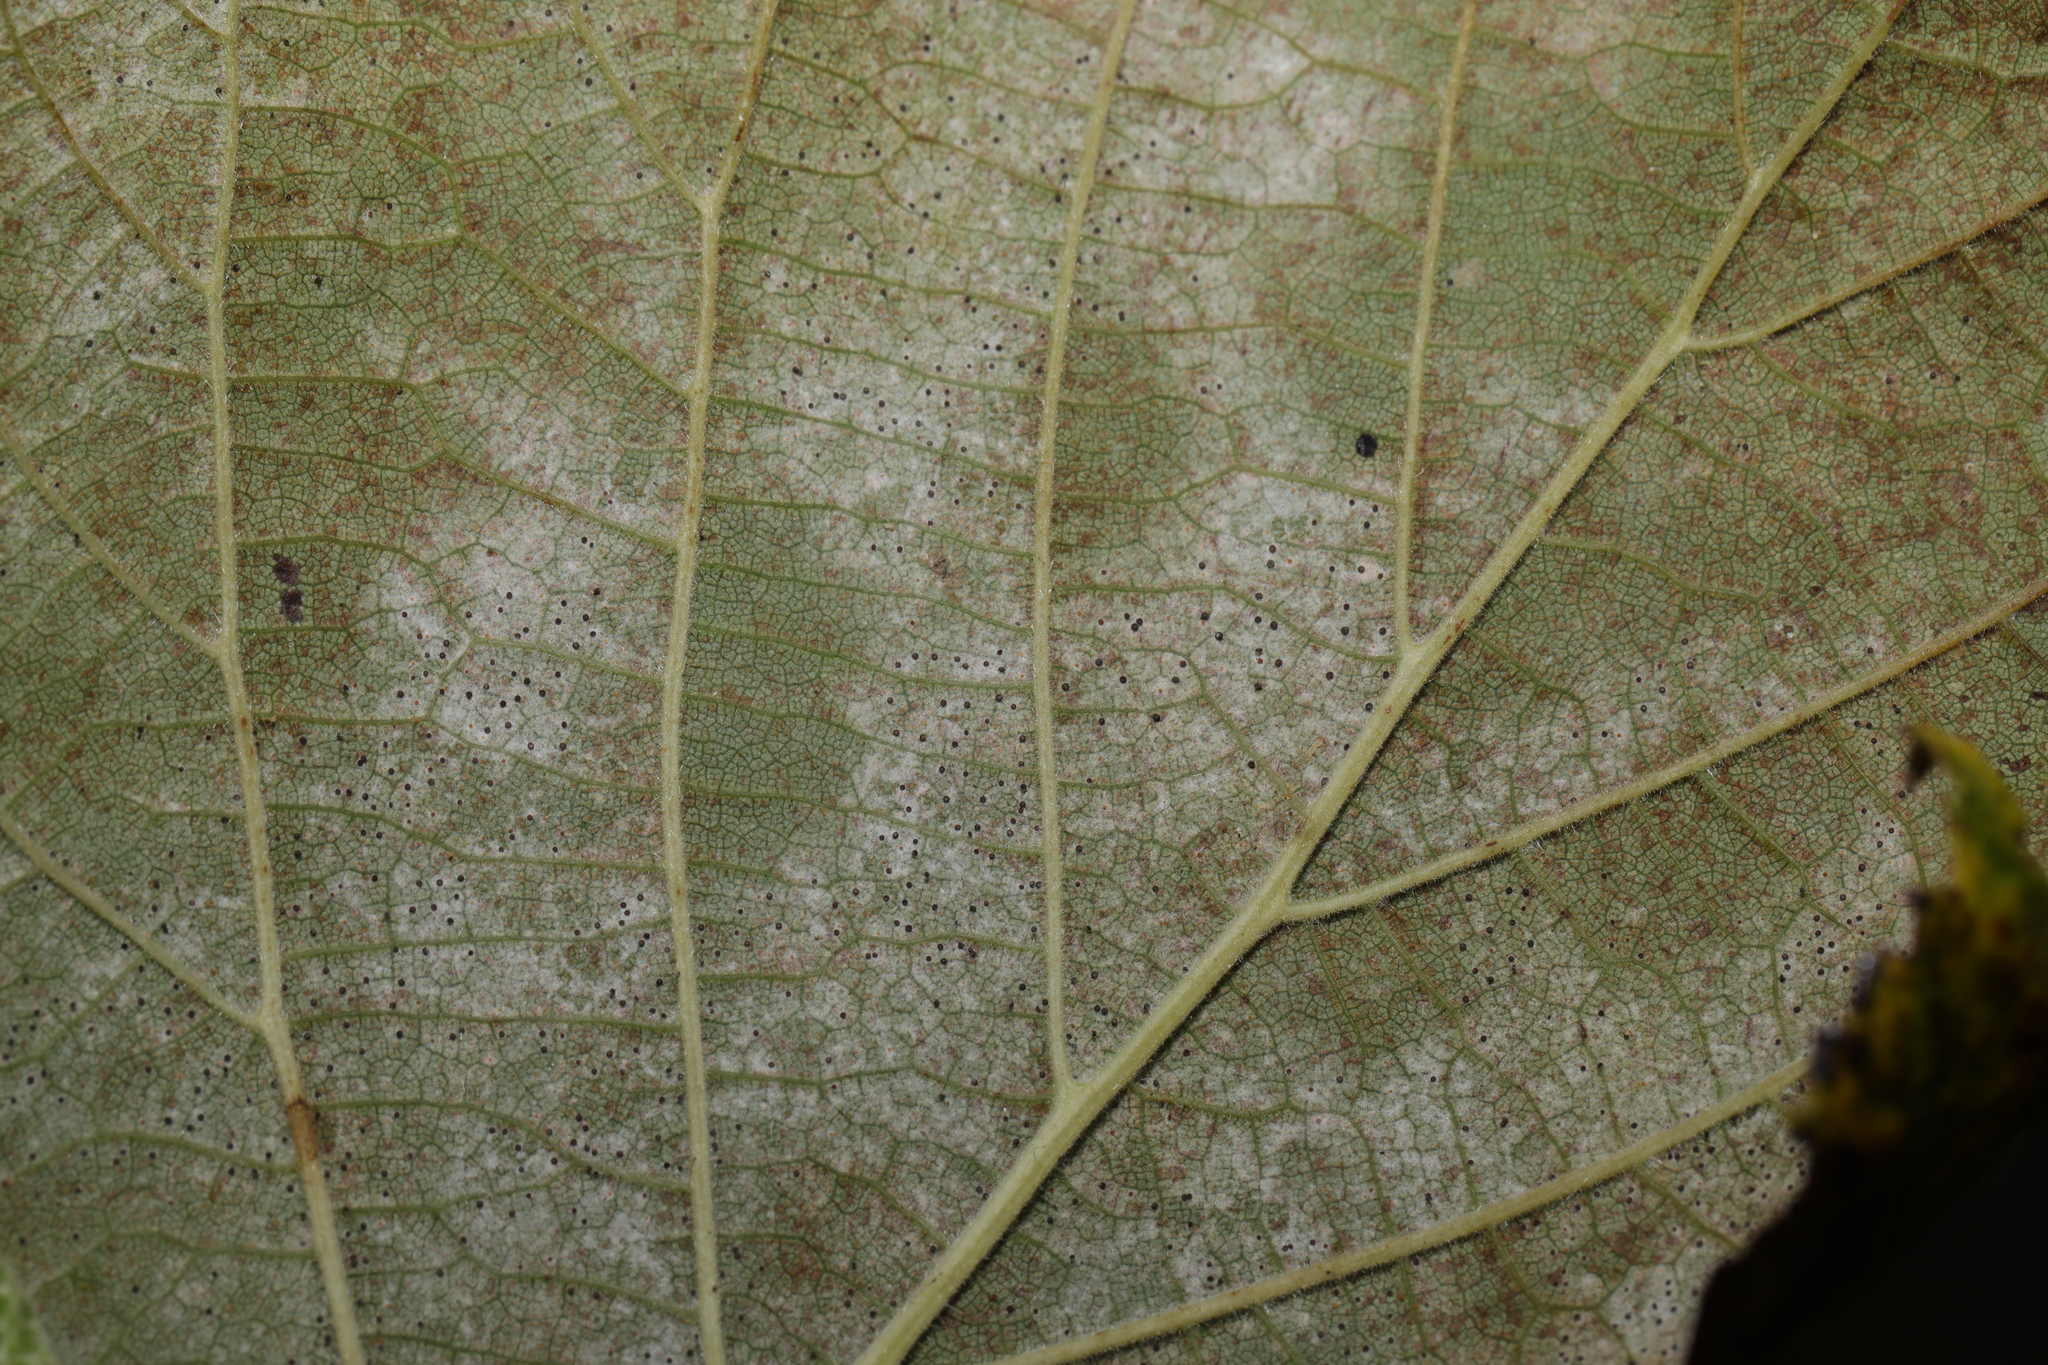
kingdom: Fungi
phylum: Ascomycota
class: Leotiomycetes
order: Helotiales
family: Erysiphaceae
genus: Phyllactinia
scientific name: Phyllactinia guttata
